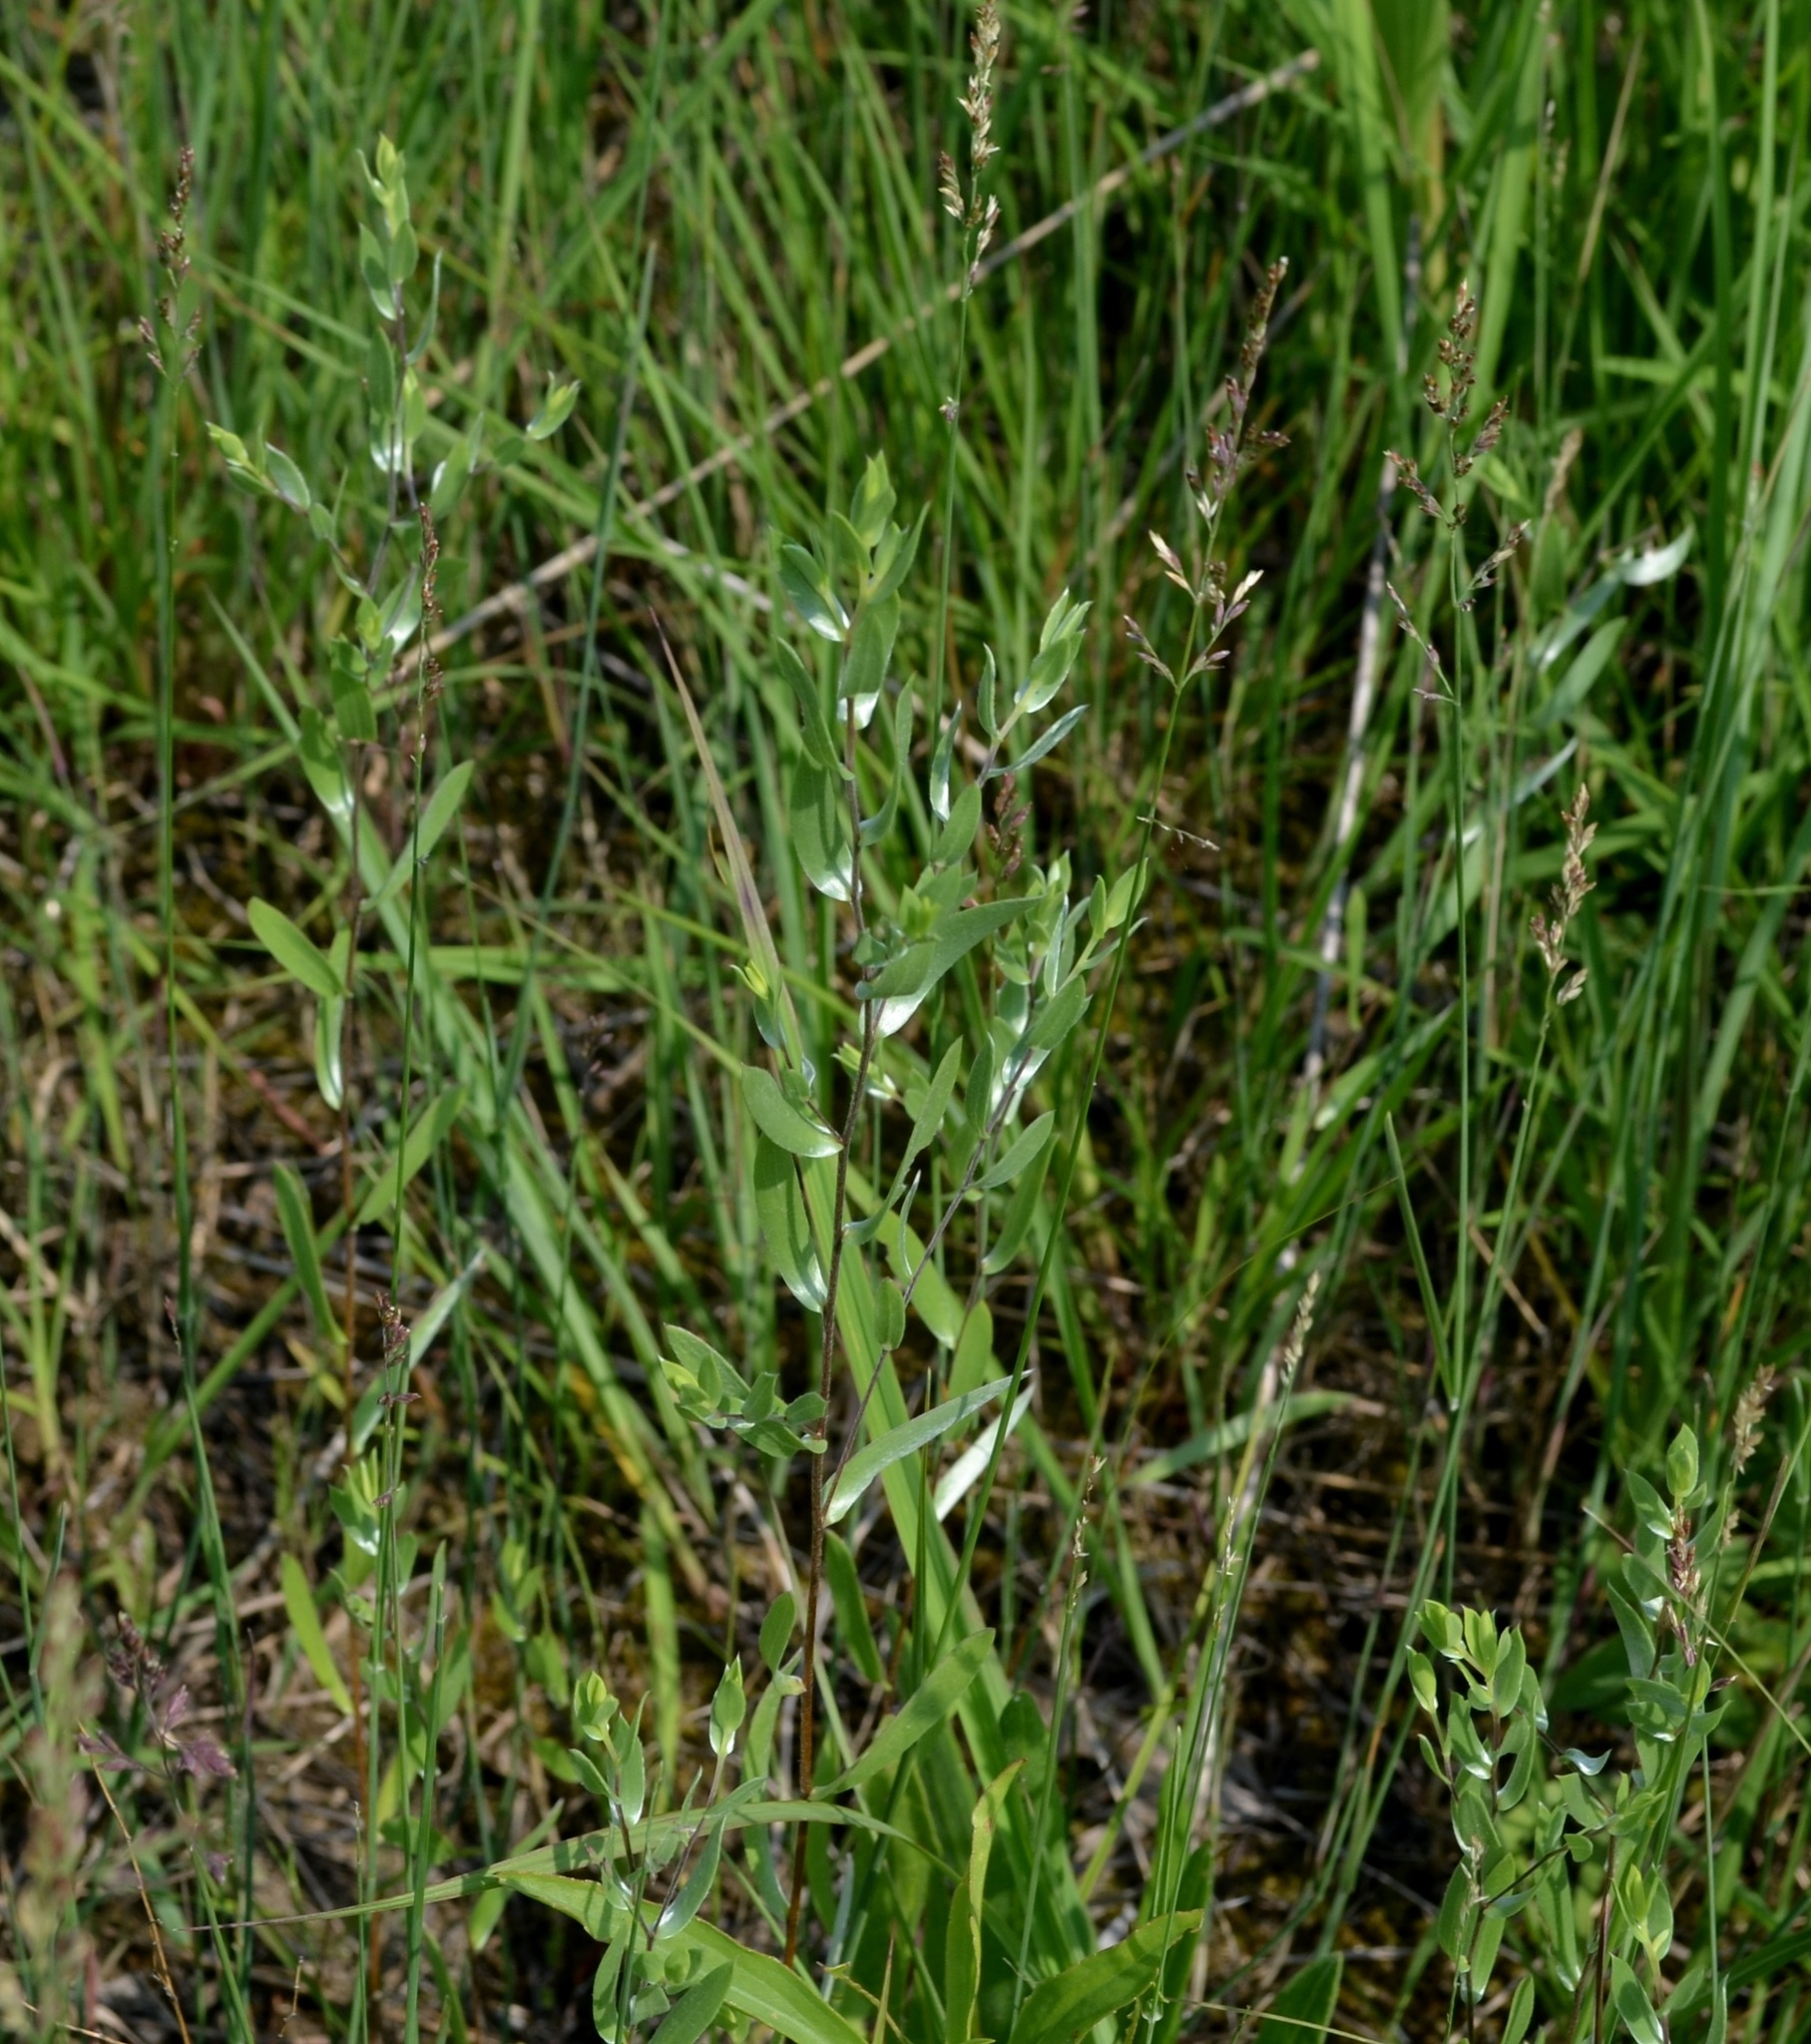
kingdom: Plantae
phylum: Tracheophyta
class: Magnoliopsida
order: Asterales
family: Asteraceae
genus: Symphyotrichum
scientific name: Symphyotrichum sericeum
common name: Silky aster
